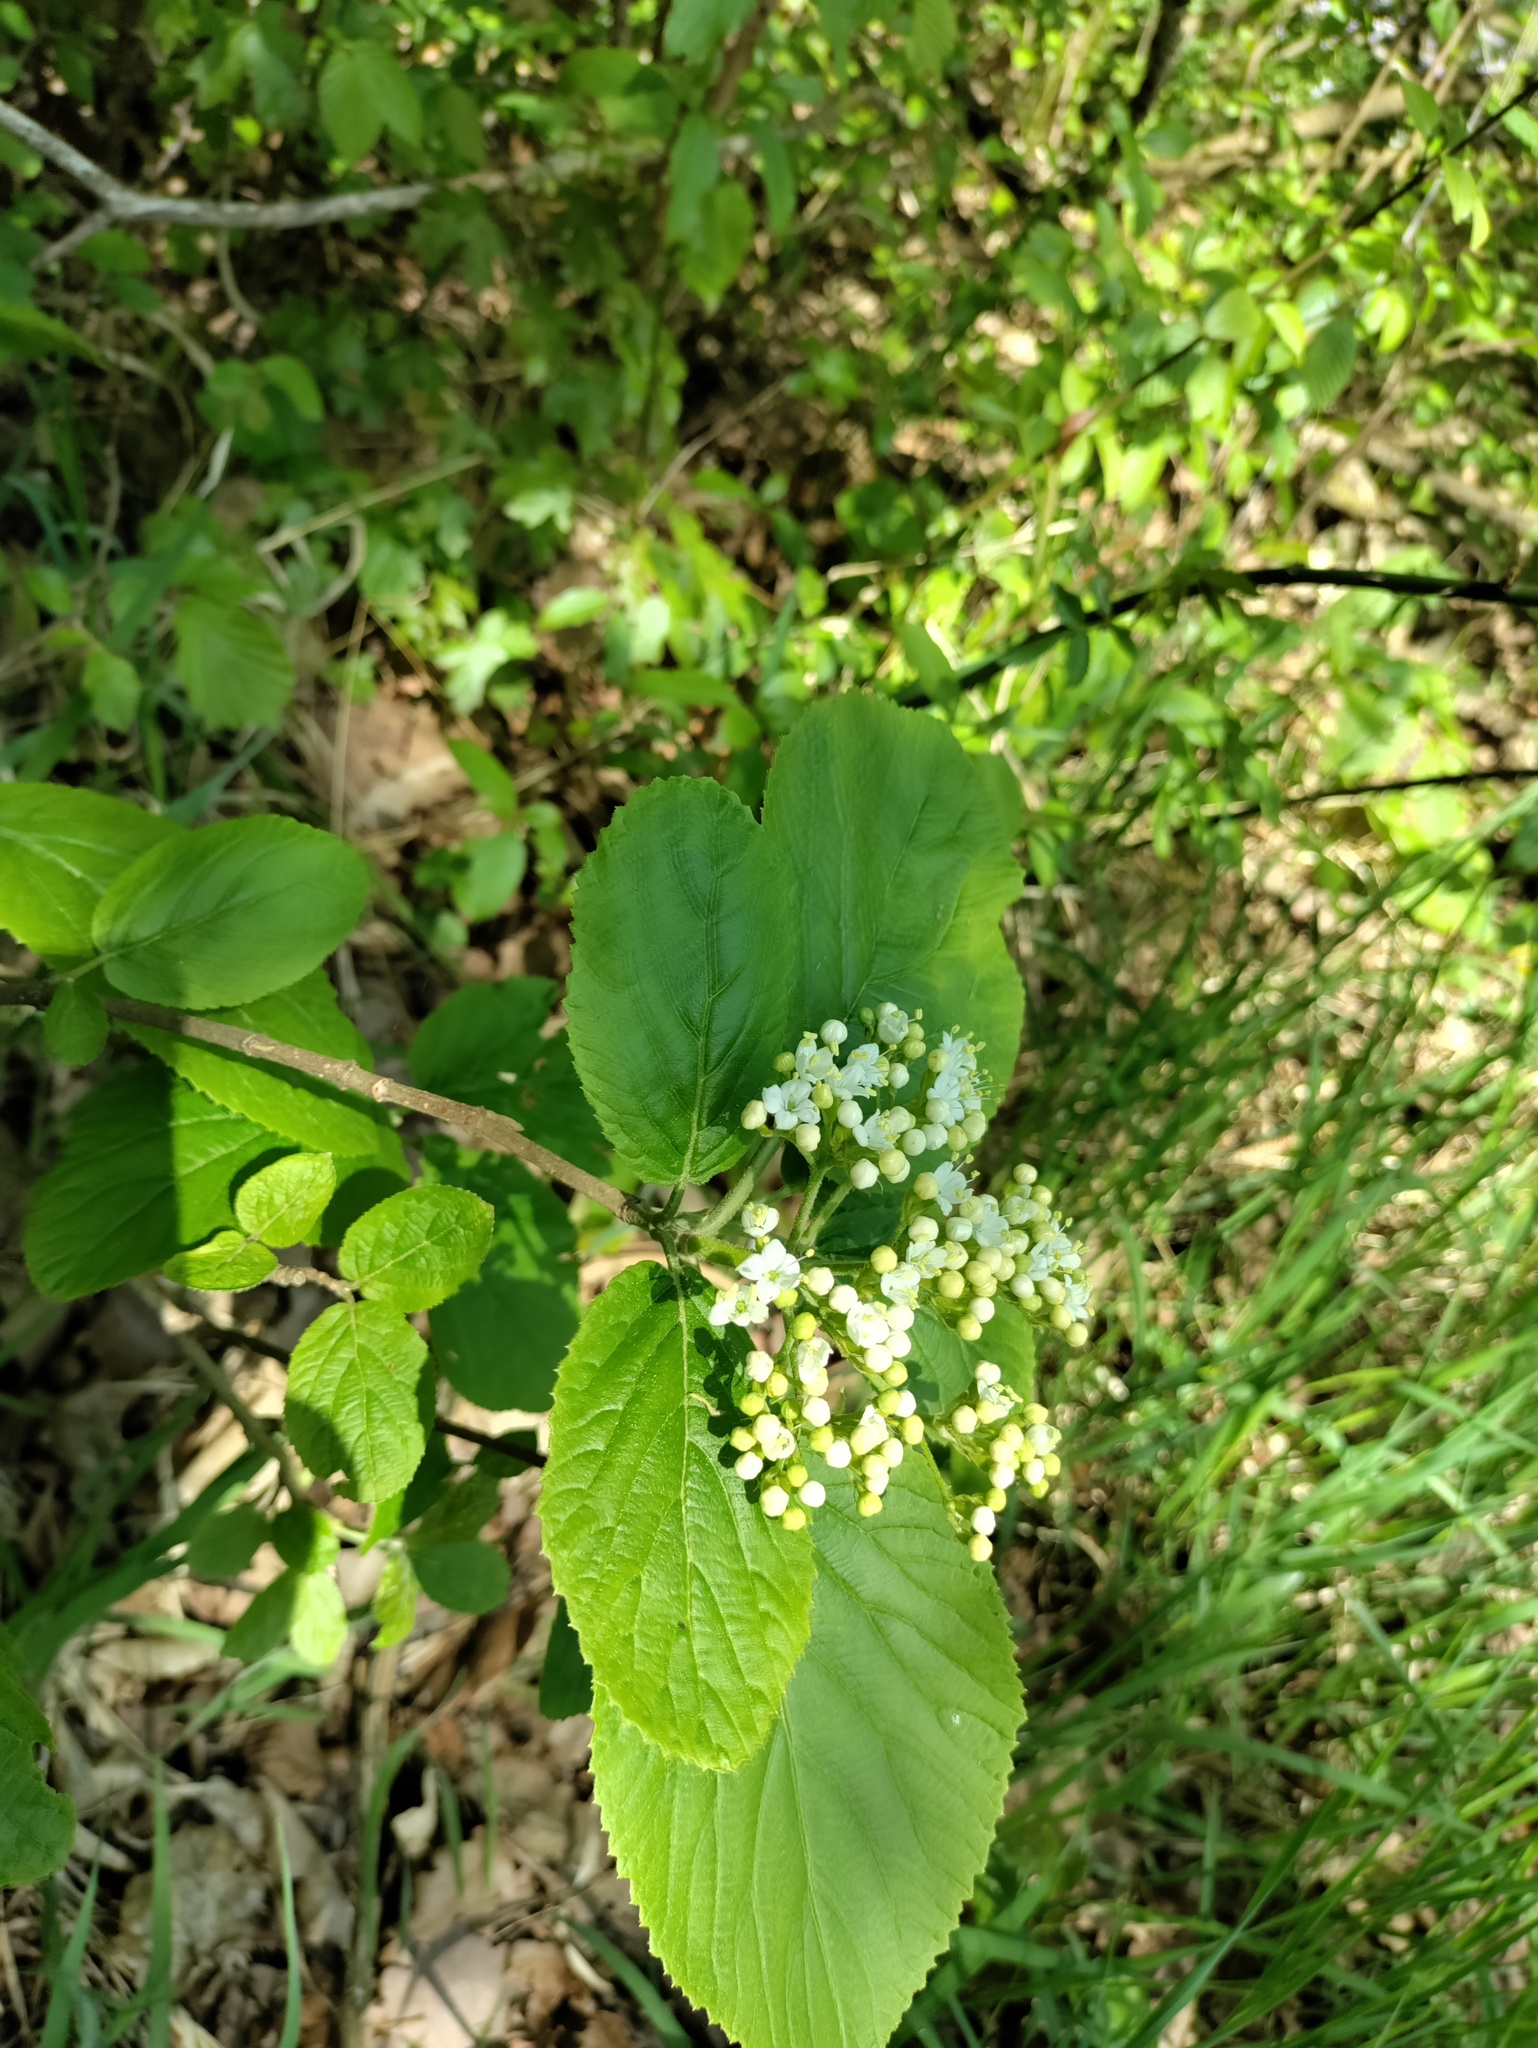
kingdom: Plantae
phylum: Tracheophyta
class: Magnoliopsida
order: Dipsacales
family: Viburnaceae
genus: Viburnum
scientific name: Viburnum lantana
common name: Wayfaring tree
